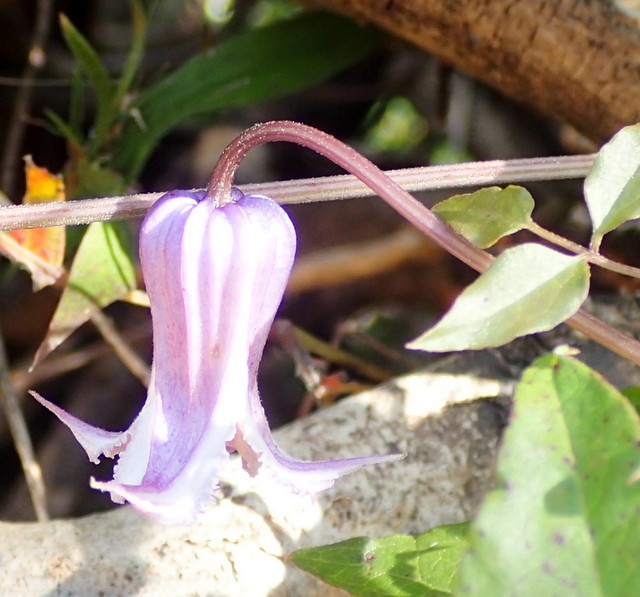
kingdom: Plantae
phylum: Tracheophyta
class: Magnoliopsida
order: Ranunculales
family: Ranunculaceae
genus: Clematis
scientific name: Clematis crispa
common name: Curly clematis
